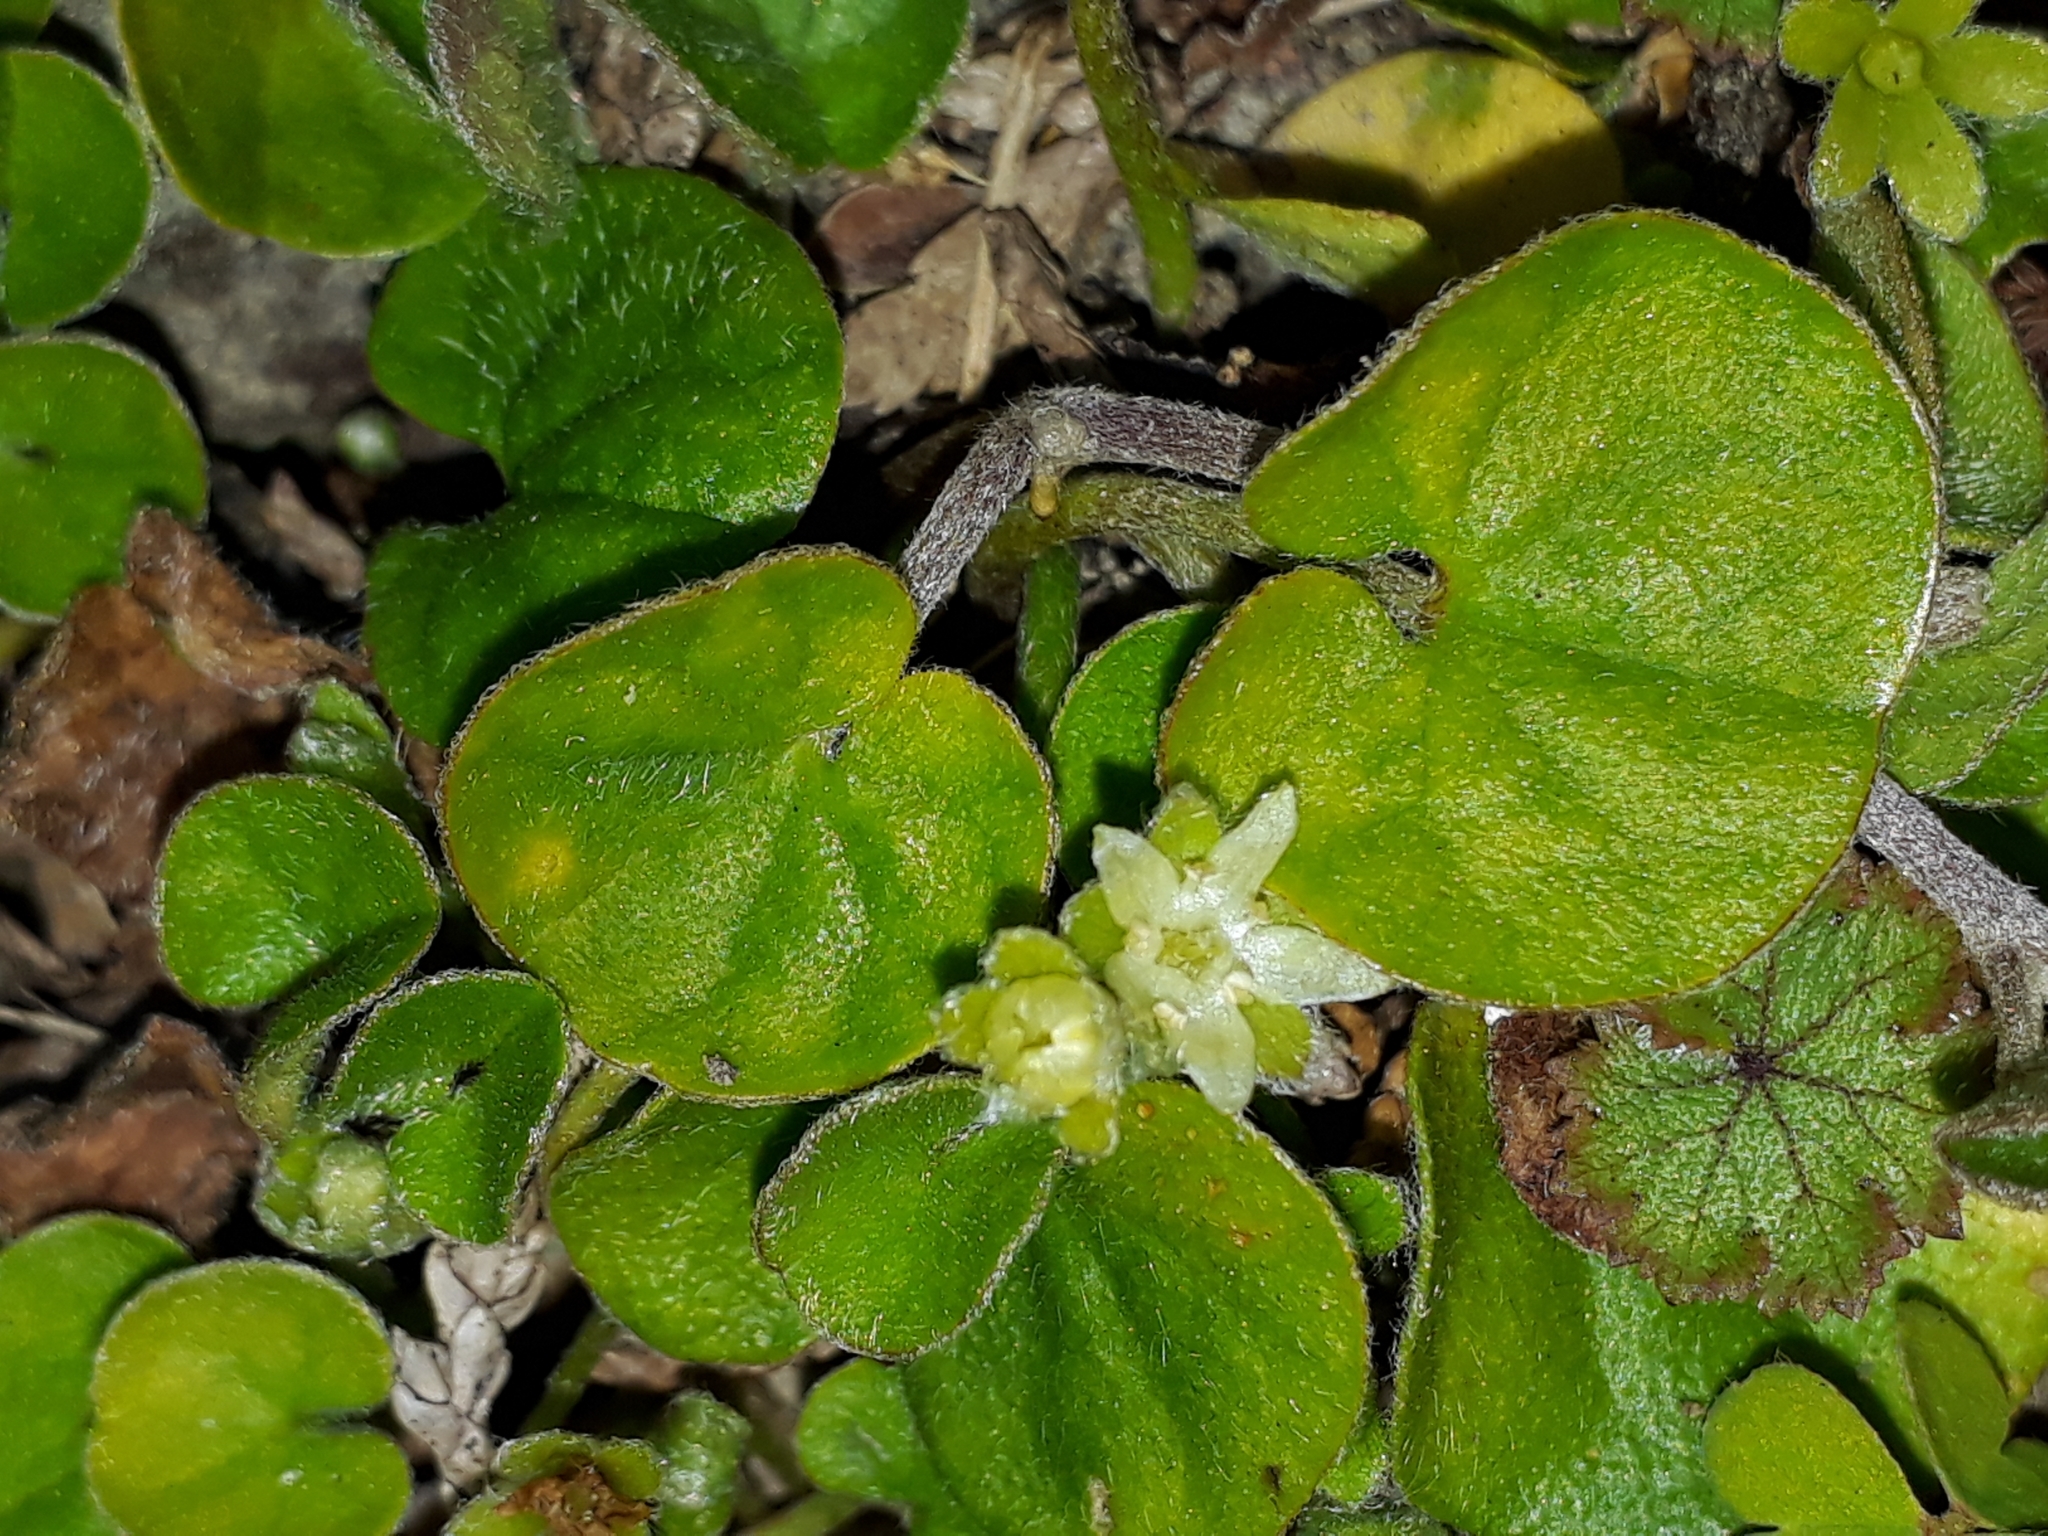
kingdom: Plantae
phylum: Tracheophyta
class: Magnoliopsida
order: Solanales
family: Convolvulaceae
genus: Dichondra
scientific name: Dichondra repens
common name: Kidneyweed
